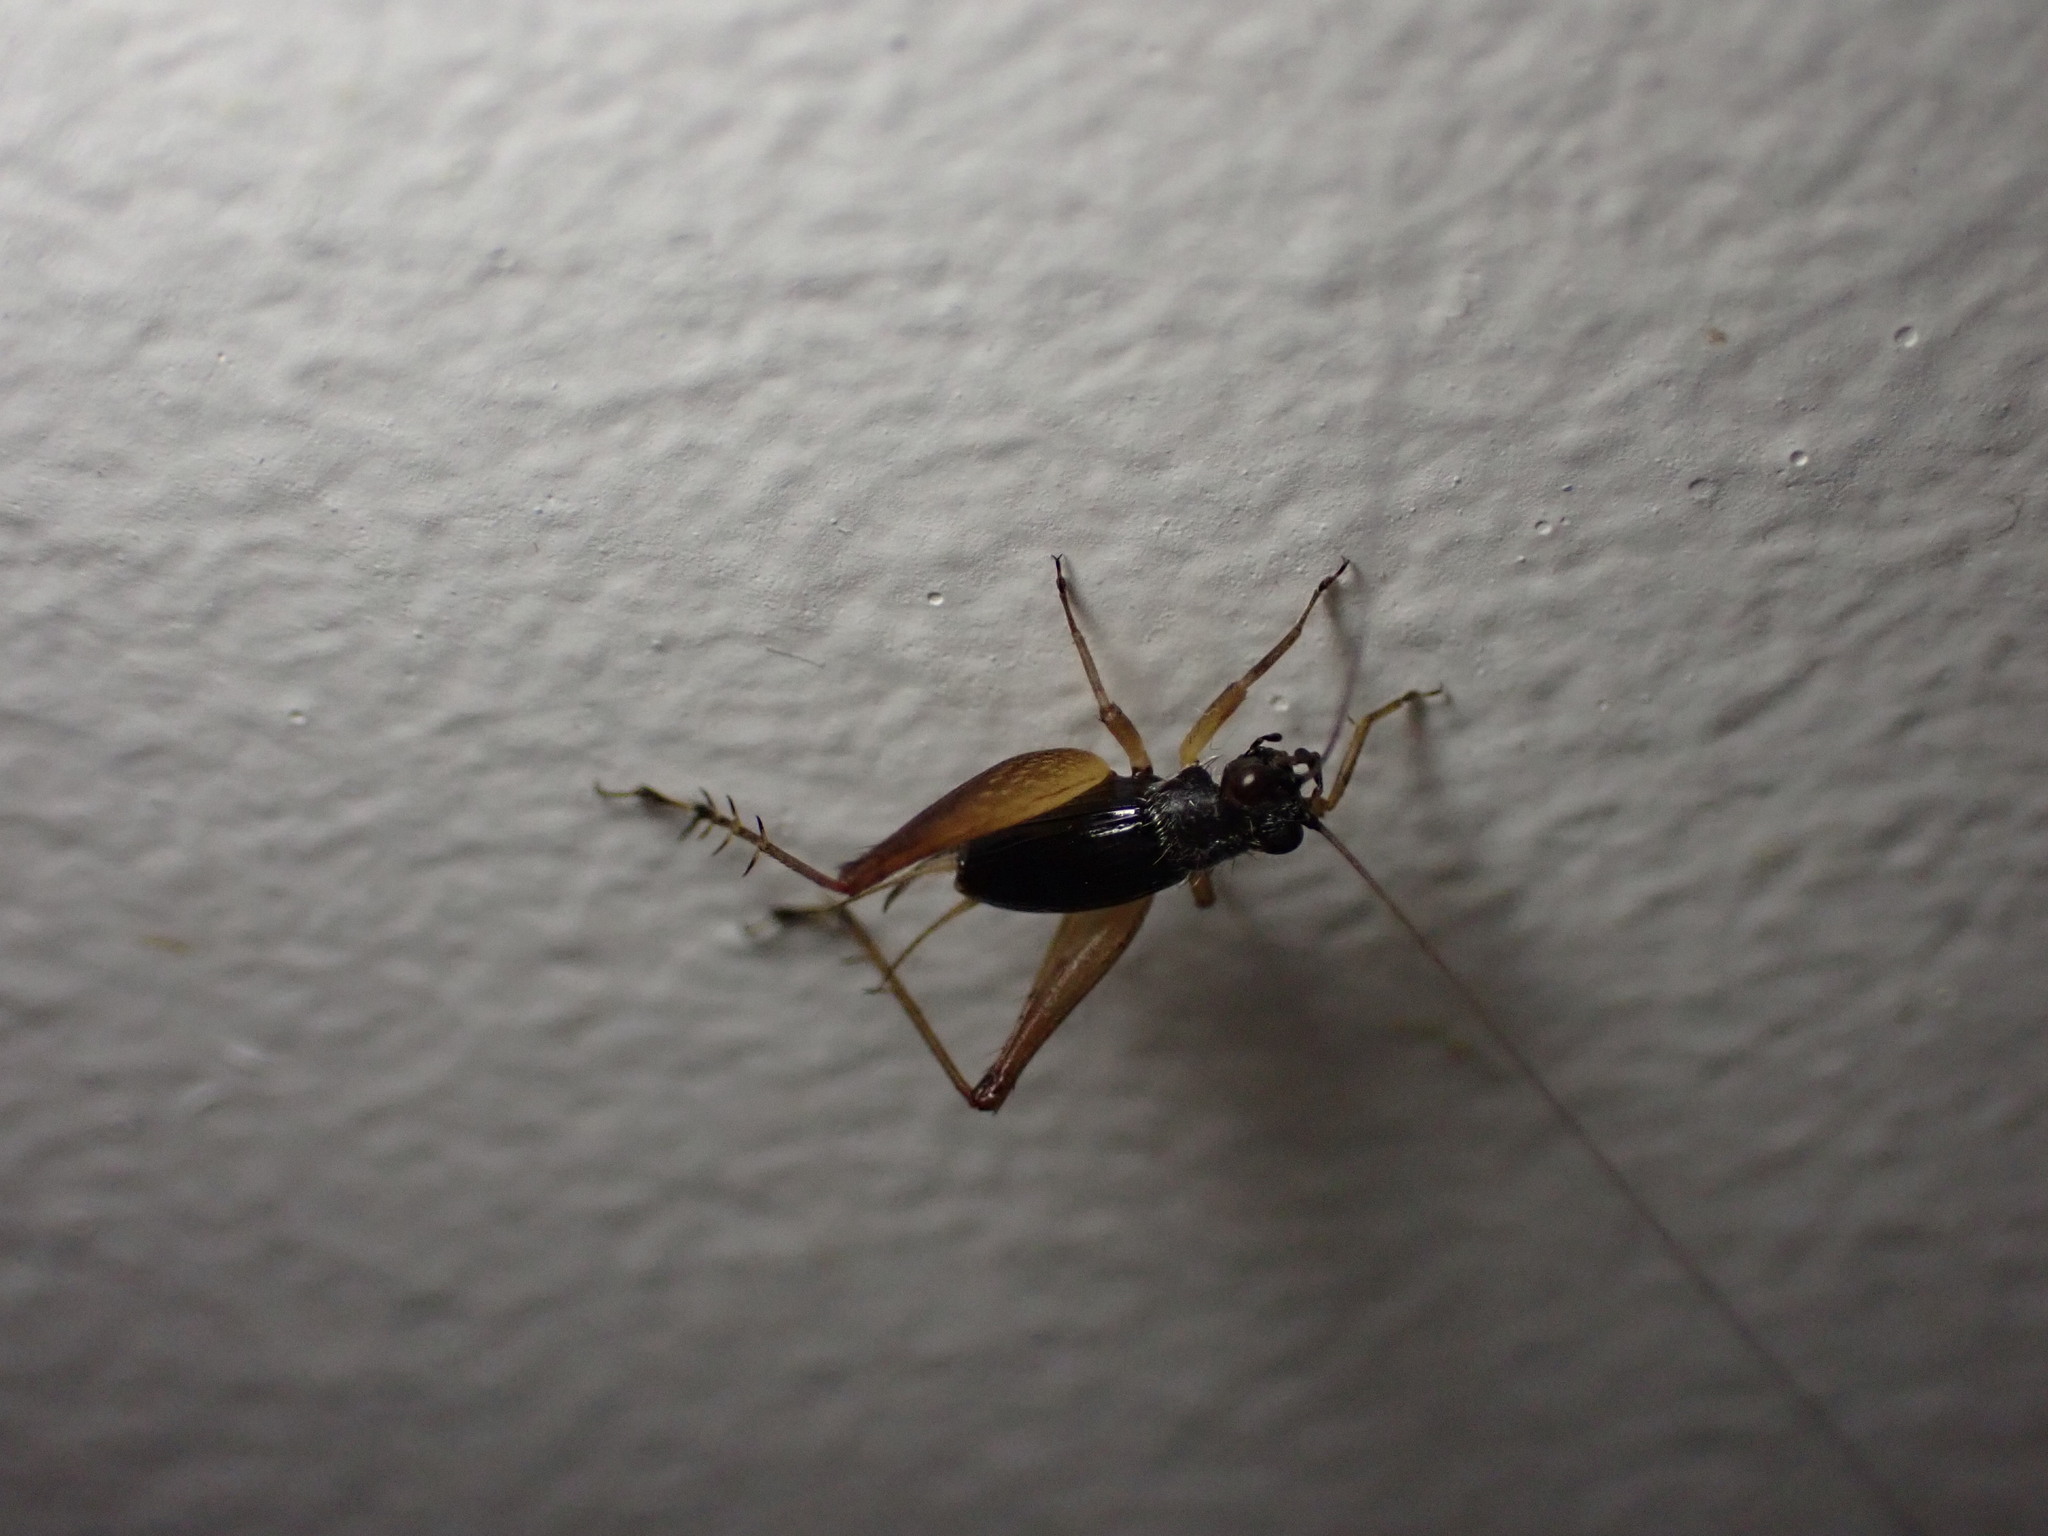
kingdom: Animalia
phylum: Arthropoda
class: Insecta
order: Orthoptera
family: Trigonidiidae
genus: Metioche
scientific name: Metioche maorica
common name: New zealand trig
